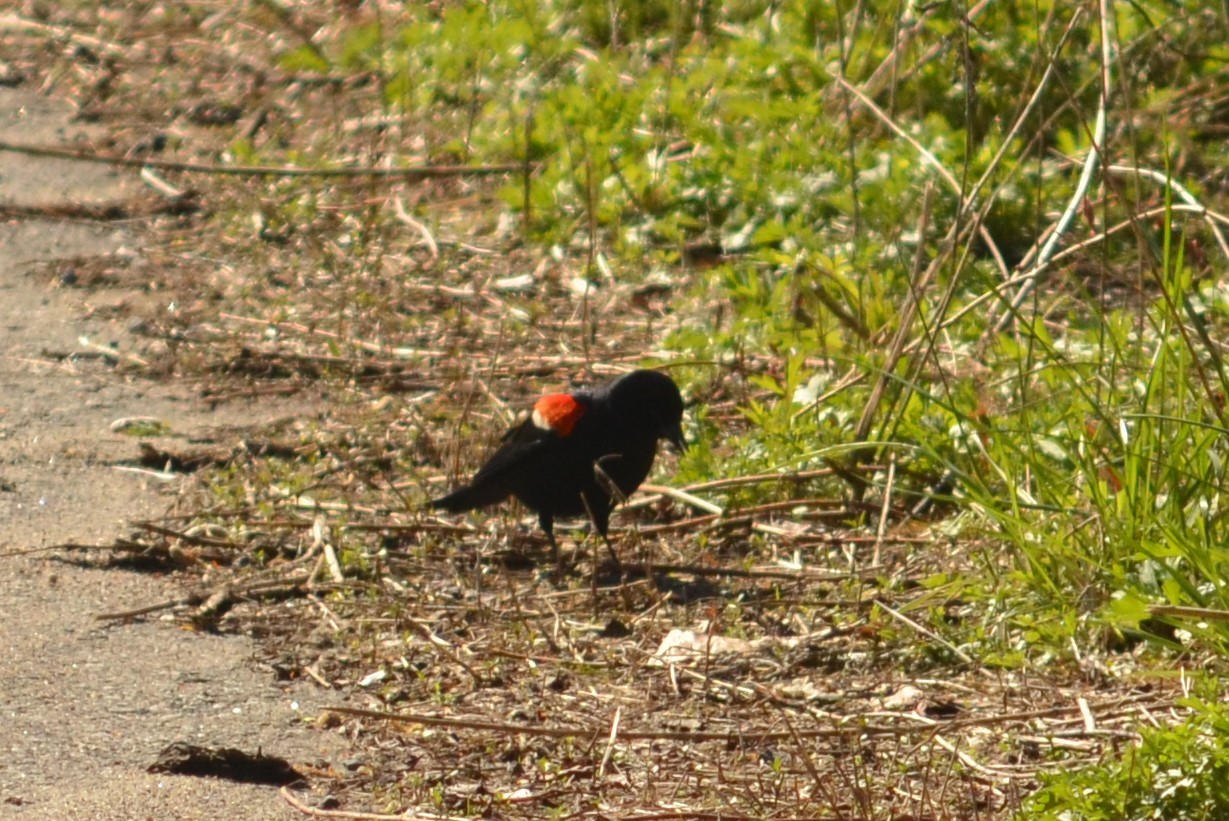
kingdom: Animalia
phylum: Chordata
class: Aves
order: Passeriformes
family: Icteridae
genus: Agelaius
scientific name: Agelaius phoeniceus
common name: Red-winged blackbird
